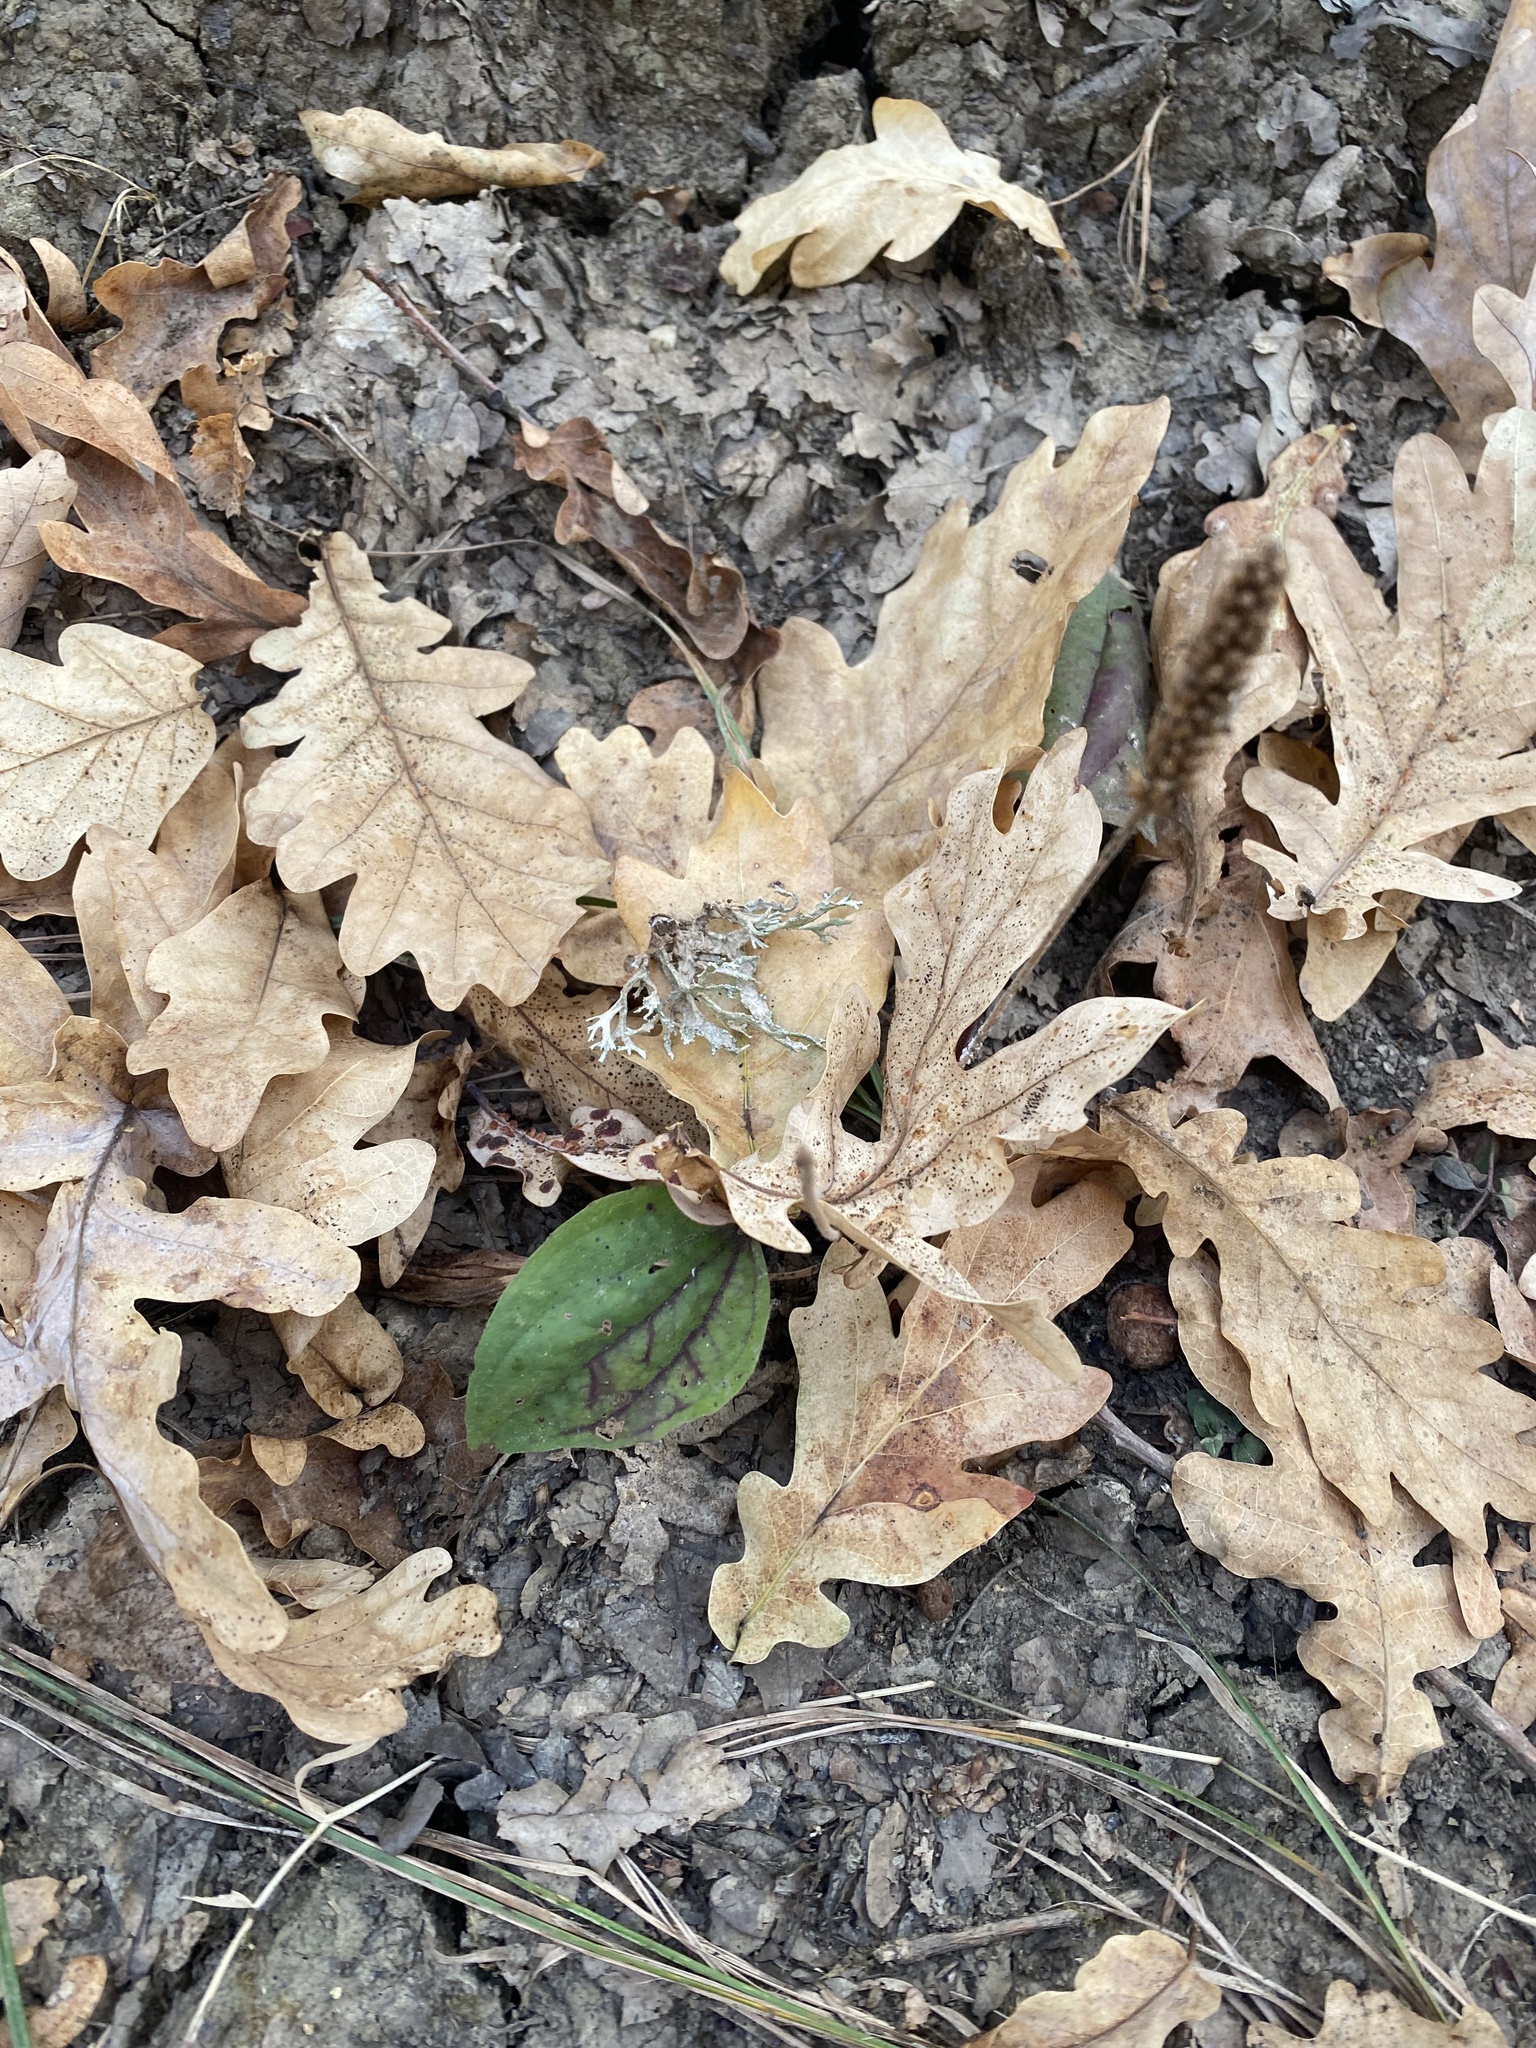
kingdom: Plantae
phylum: Tracheophyta
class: Magnoliopsida
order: Lamiales
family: Plantaginaceae
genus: Plantago
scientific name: Plantago major
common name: Common plantain
